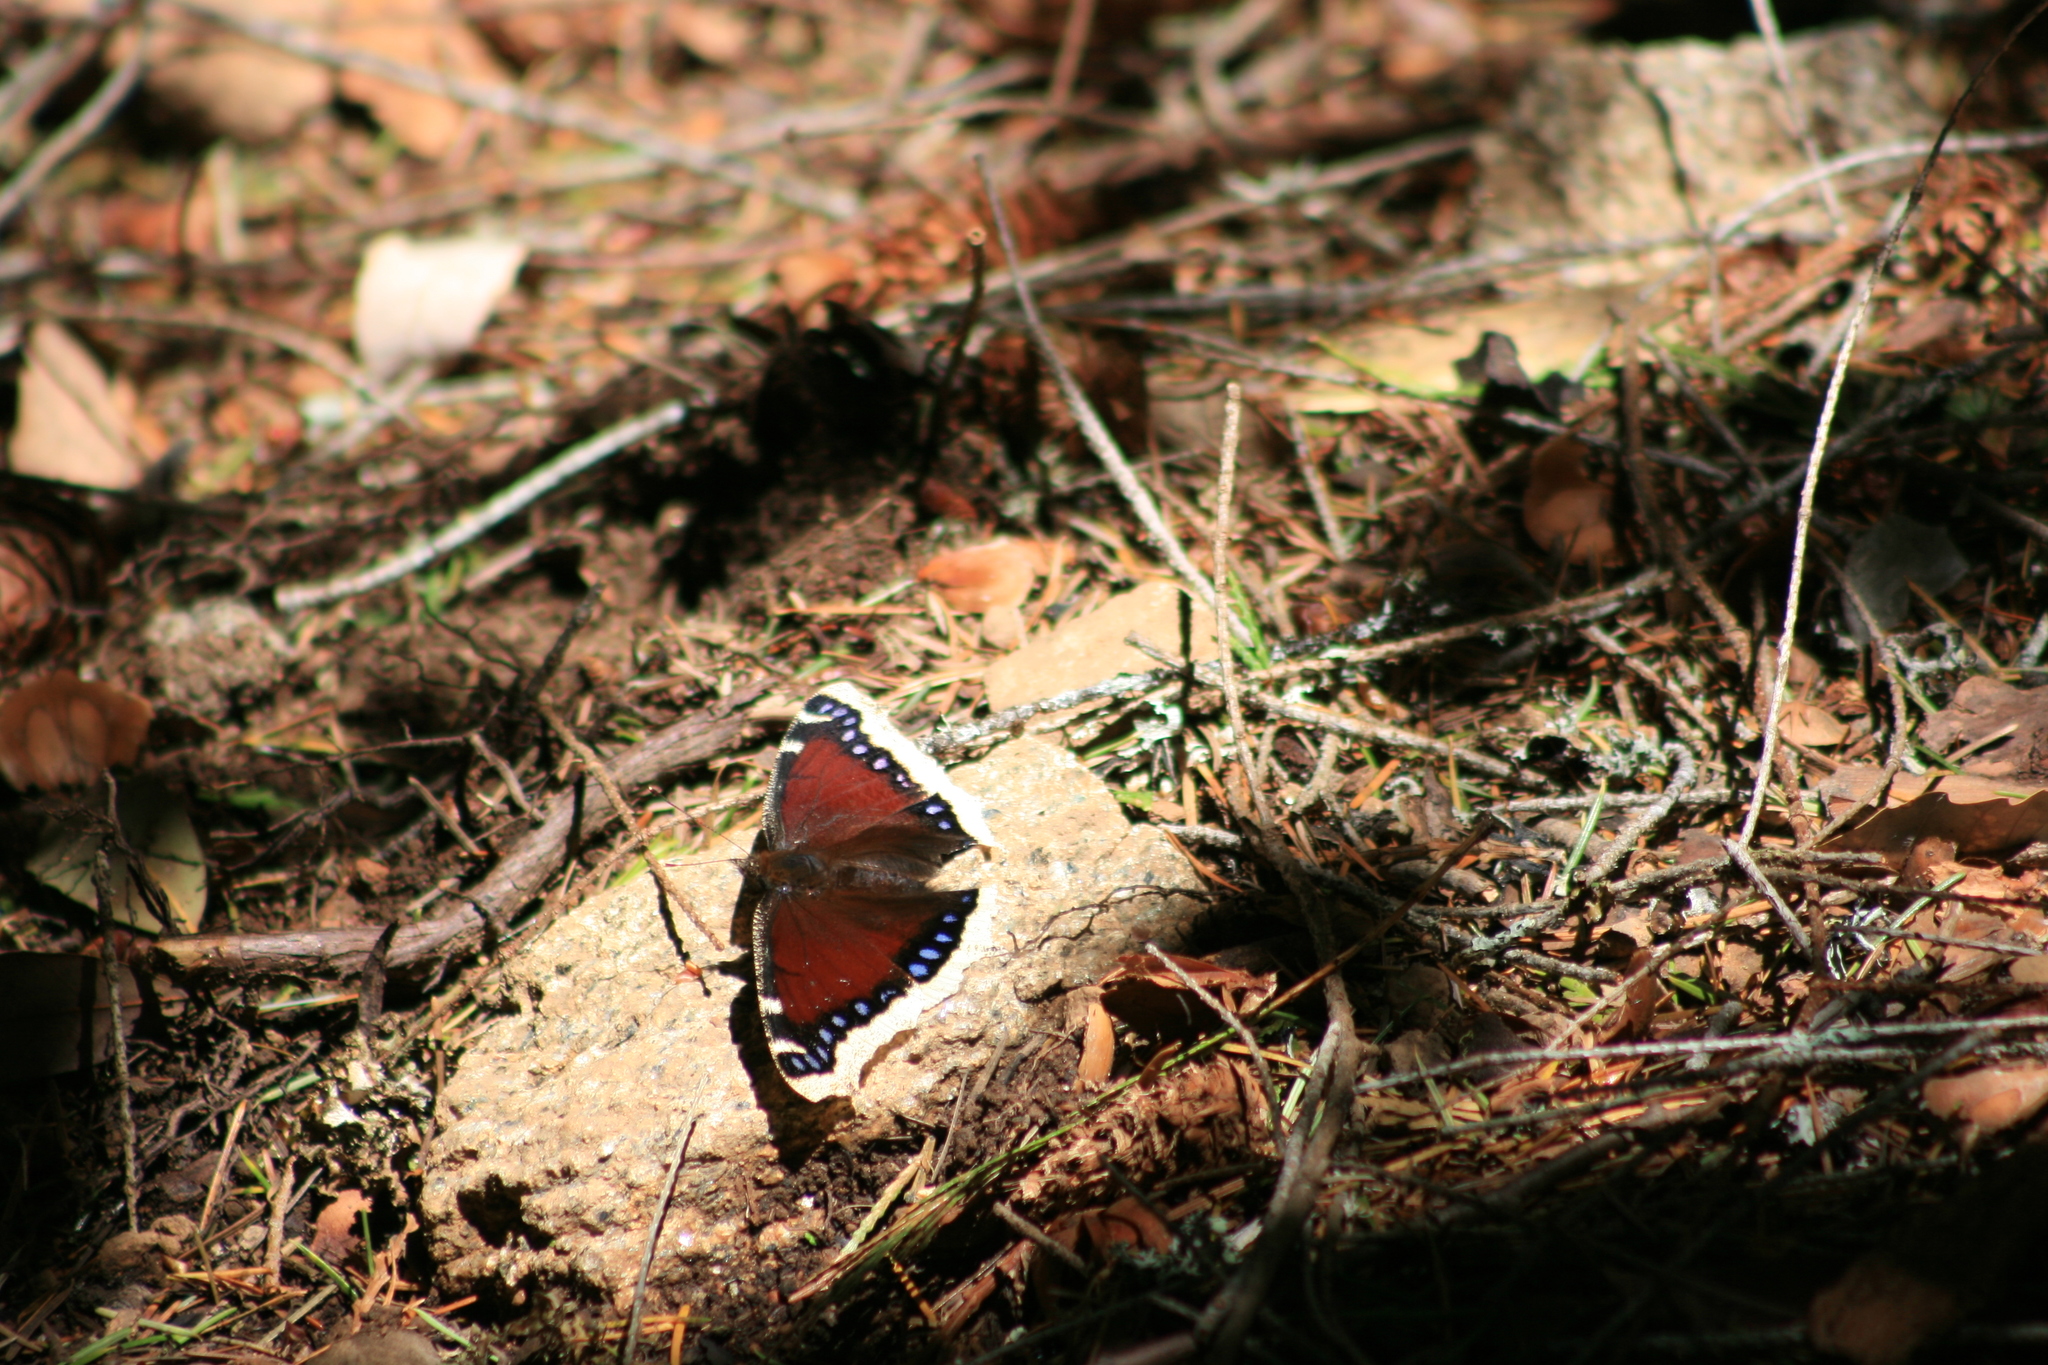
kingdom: Animalia
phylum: Arthropoda
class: Insecta
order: Lepidoptera
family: Nymphalidae
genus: Nymphalis
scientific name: Nymphalis antiopa
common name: Camberwell beauty
